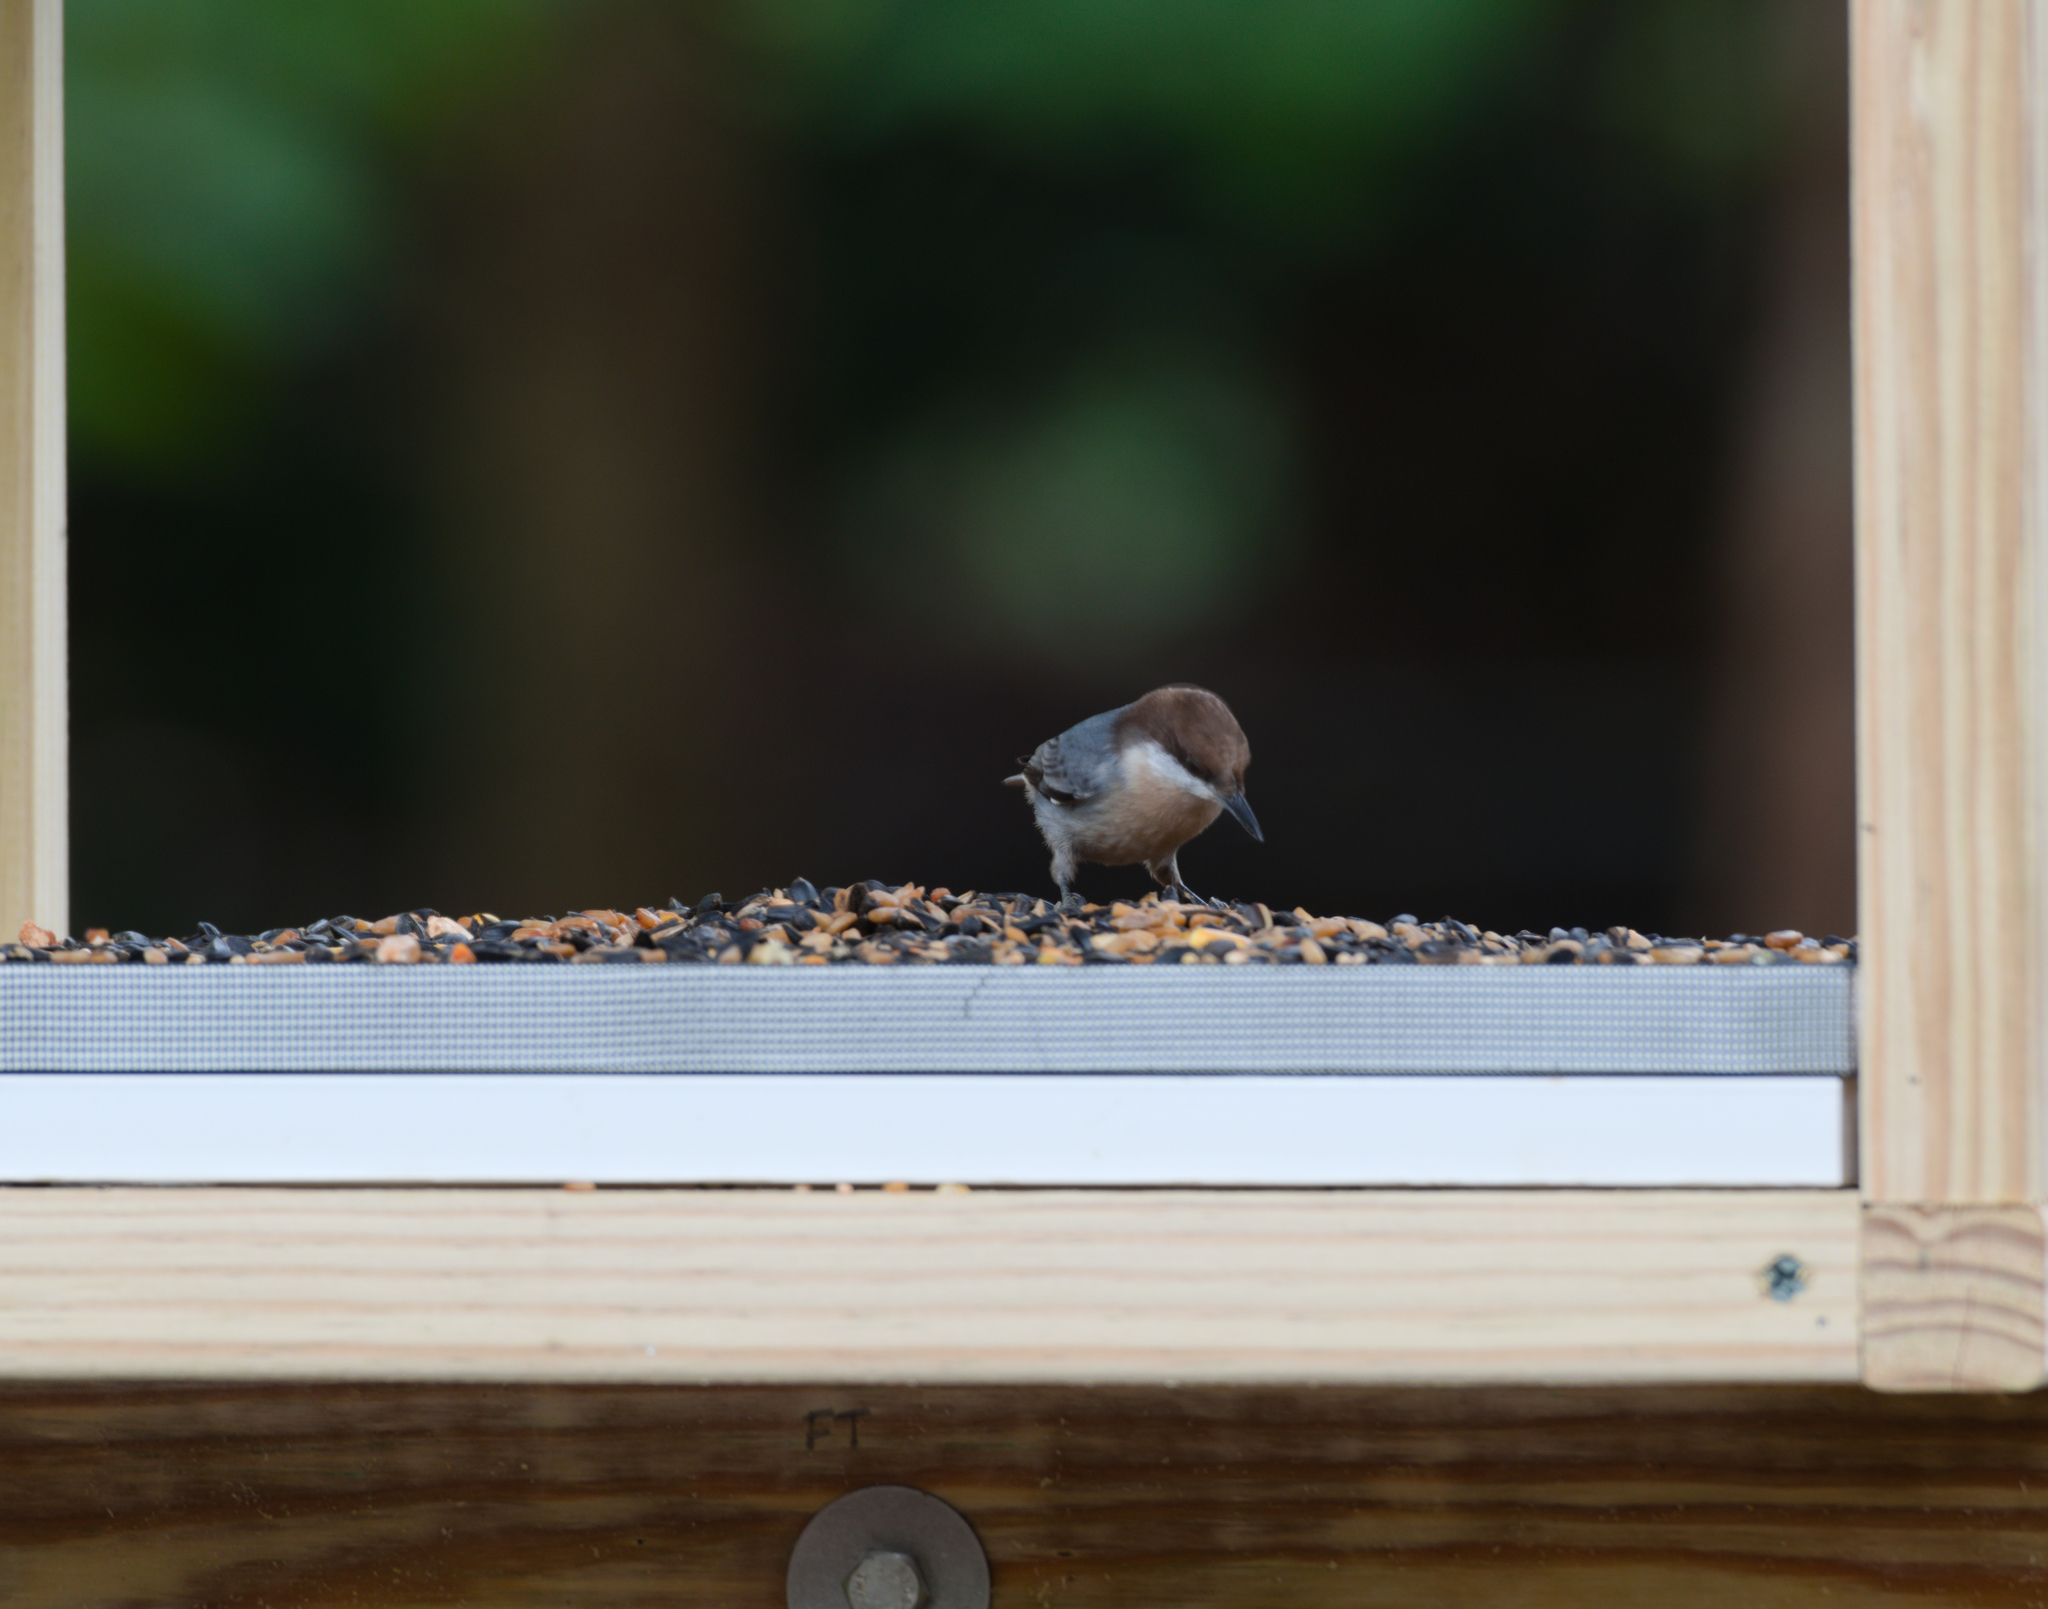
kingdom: Animalia
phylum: Chordata
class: Aves
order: Passeriformes
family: Sittidae
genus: Sitta
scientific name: Sitta pusilla
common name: Brown-headed nuthatch
